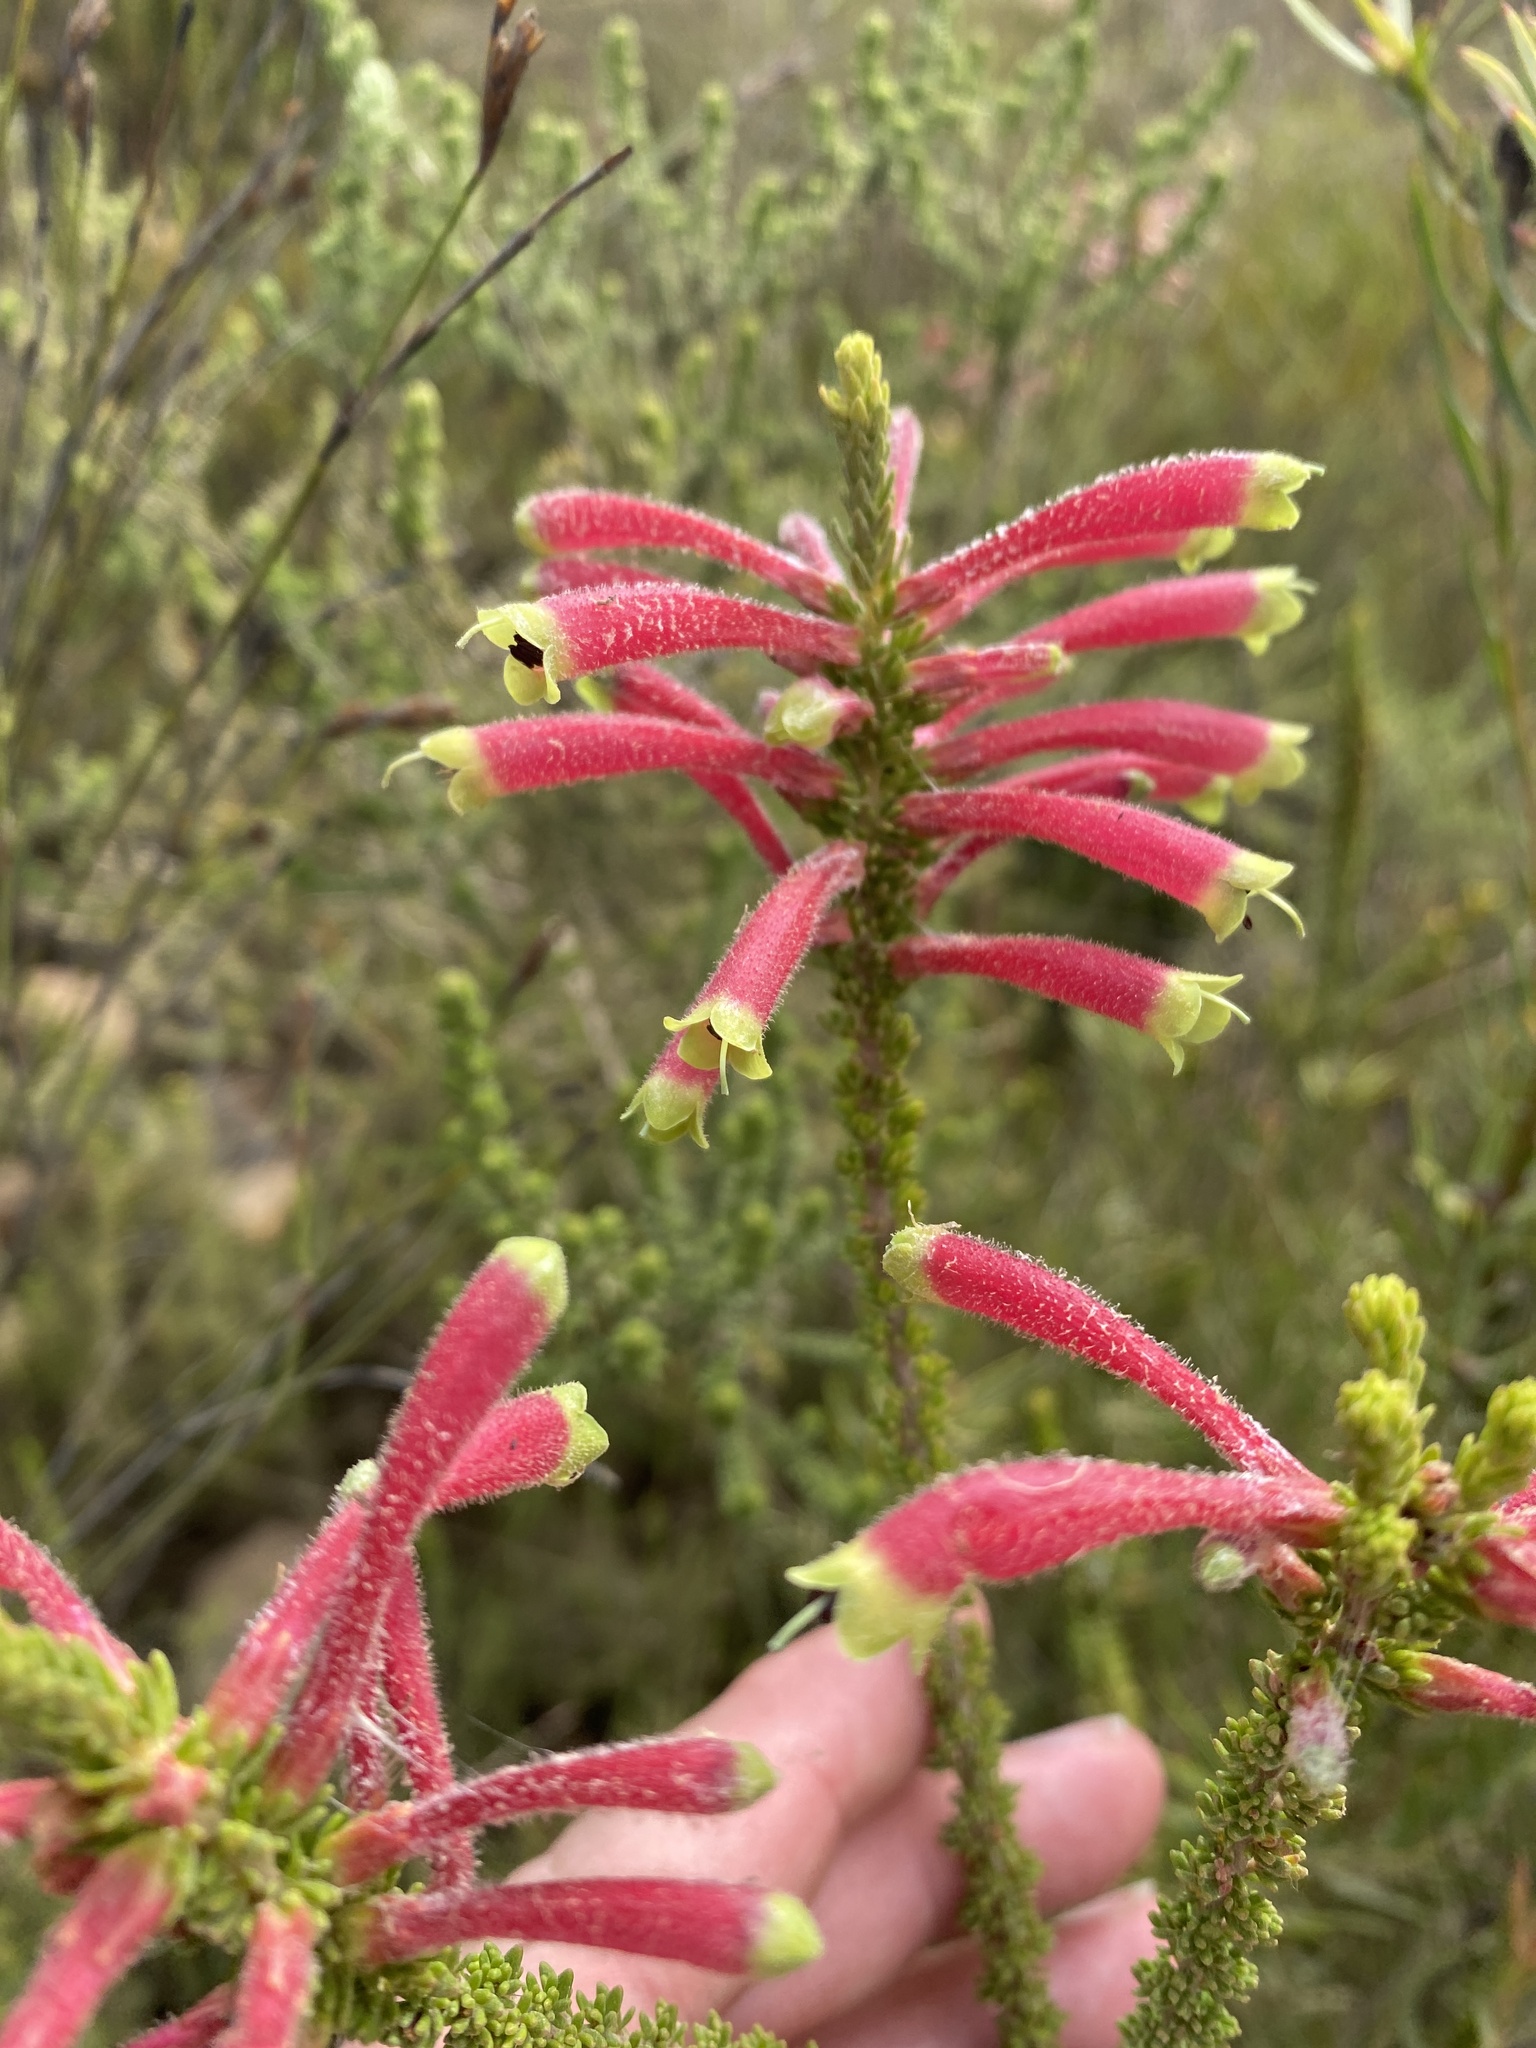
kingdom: Plantae
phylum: Tracheophyta
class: Magnoliopsida
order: Ericales
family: Ericaceae
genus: Erica
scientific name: Erica densifolia
